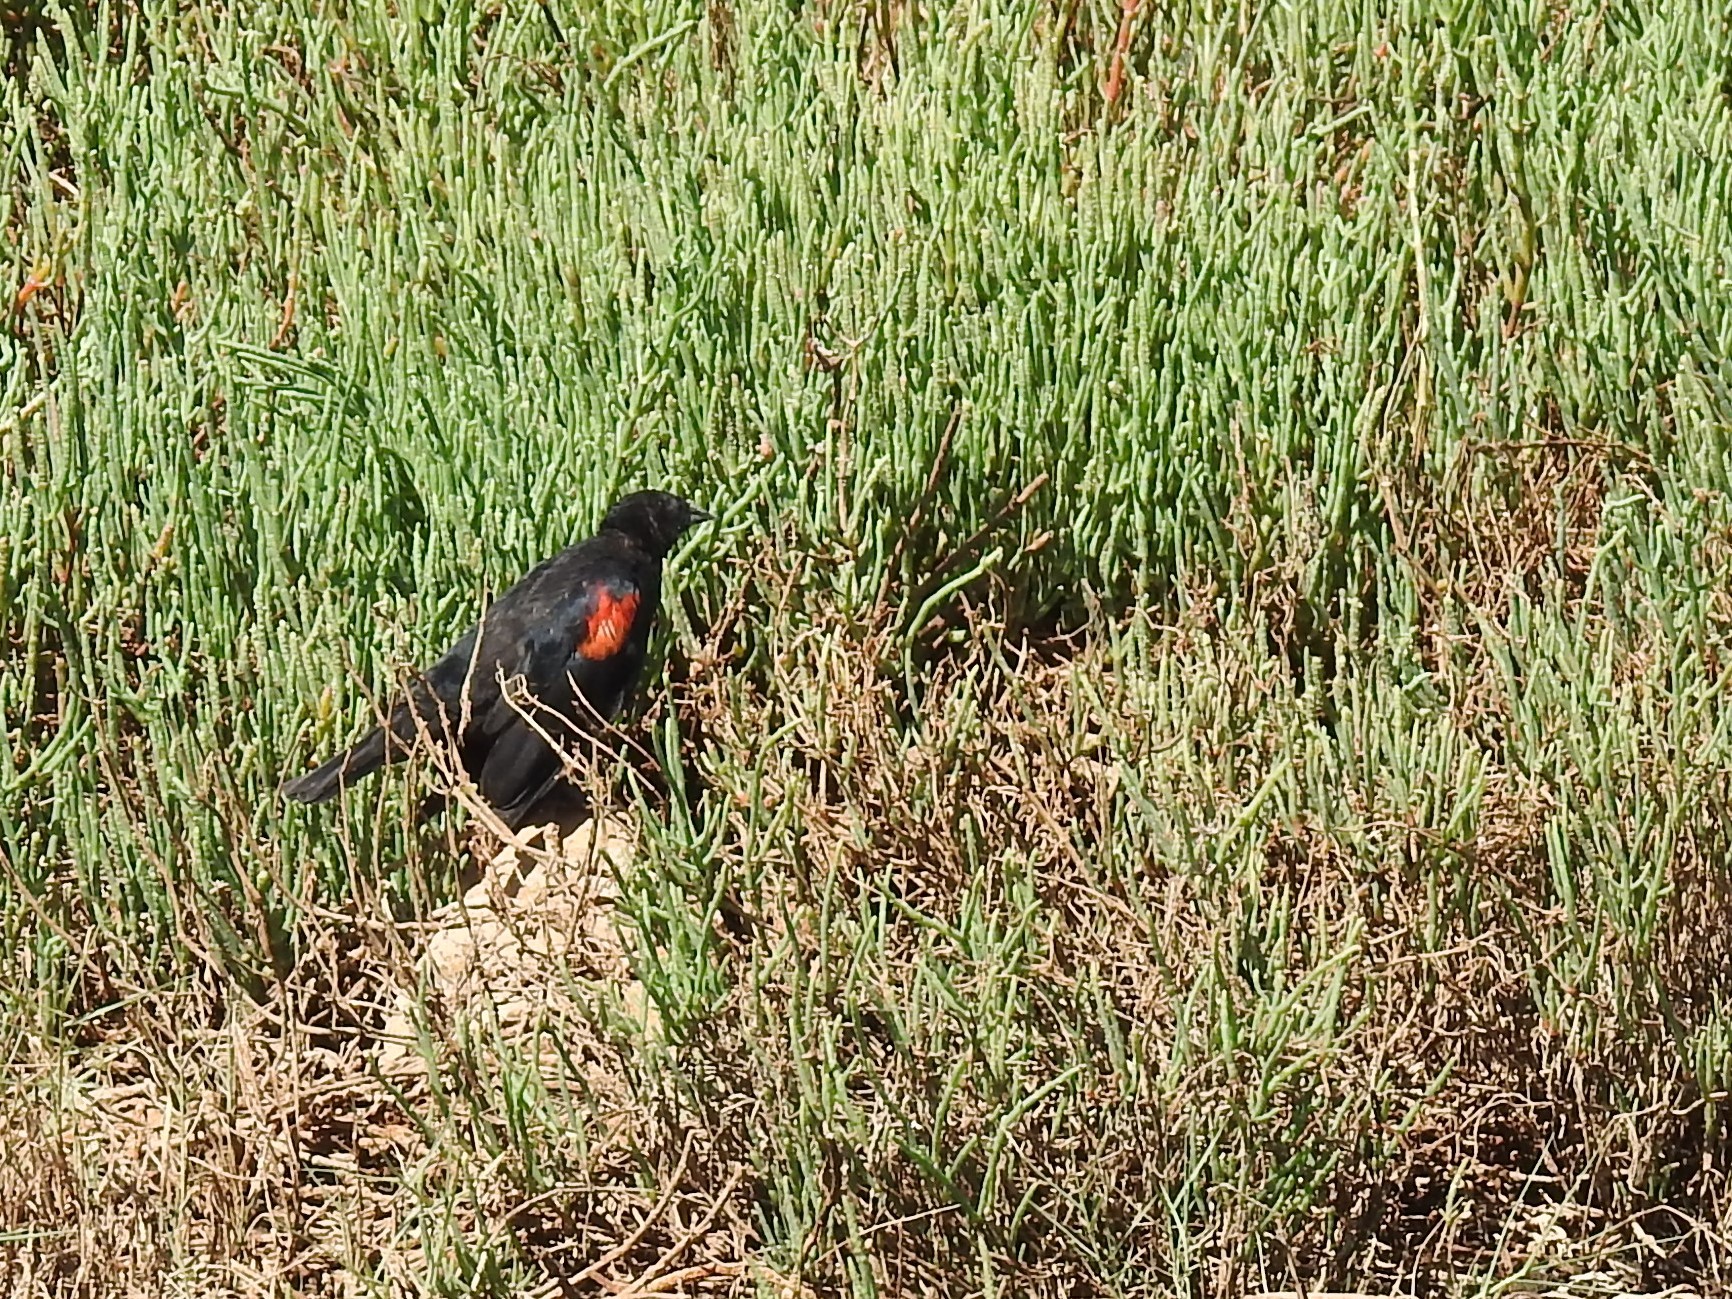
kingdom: Animalia
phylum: Chordata
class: Aves
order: Passeriformes
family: Icteridae
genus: Agelaius
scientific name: Agelaius phoeniceus
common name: Red-winged blackbird
